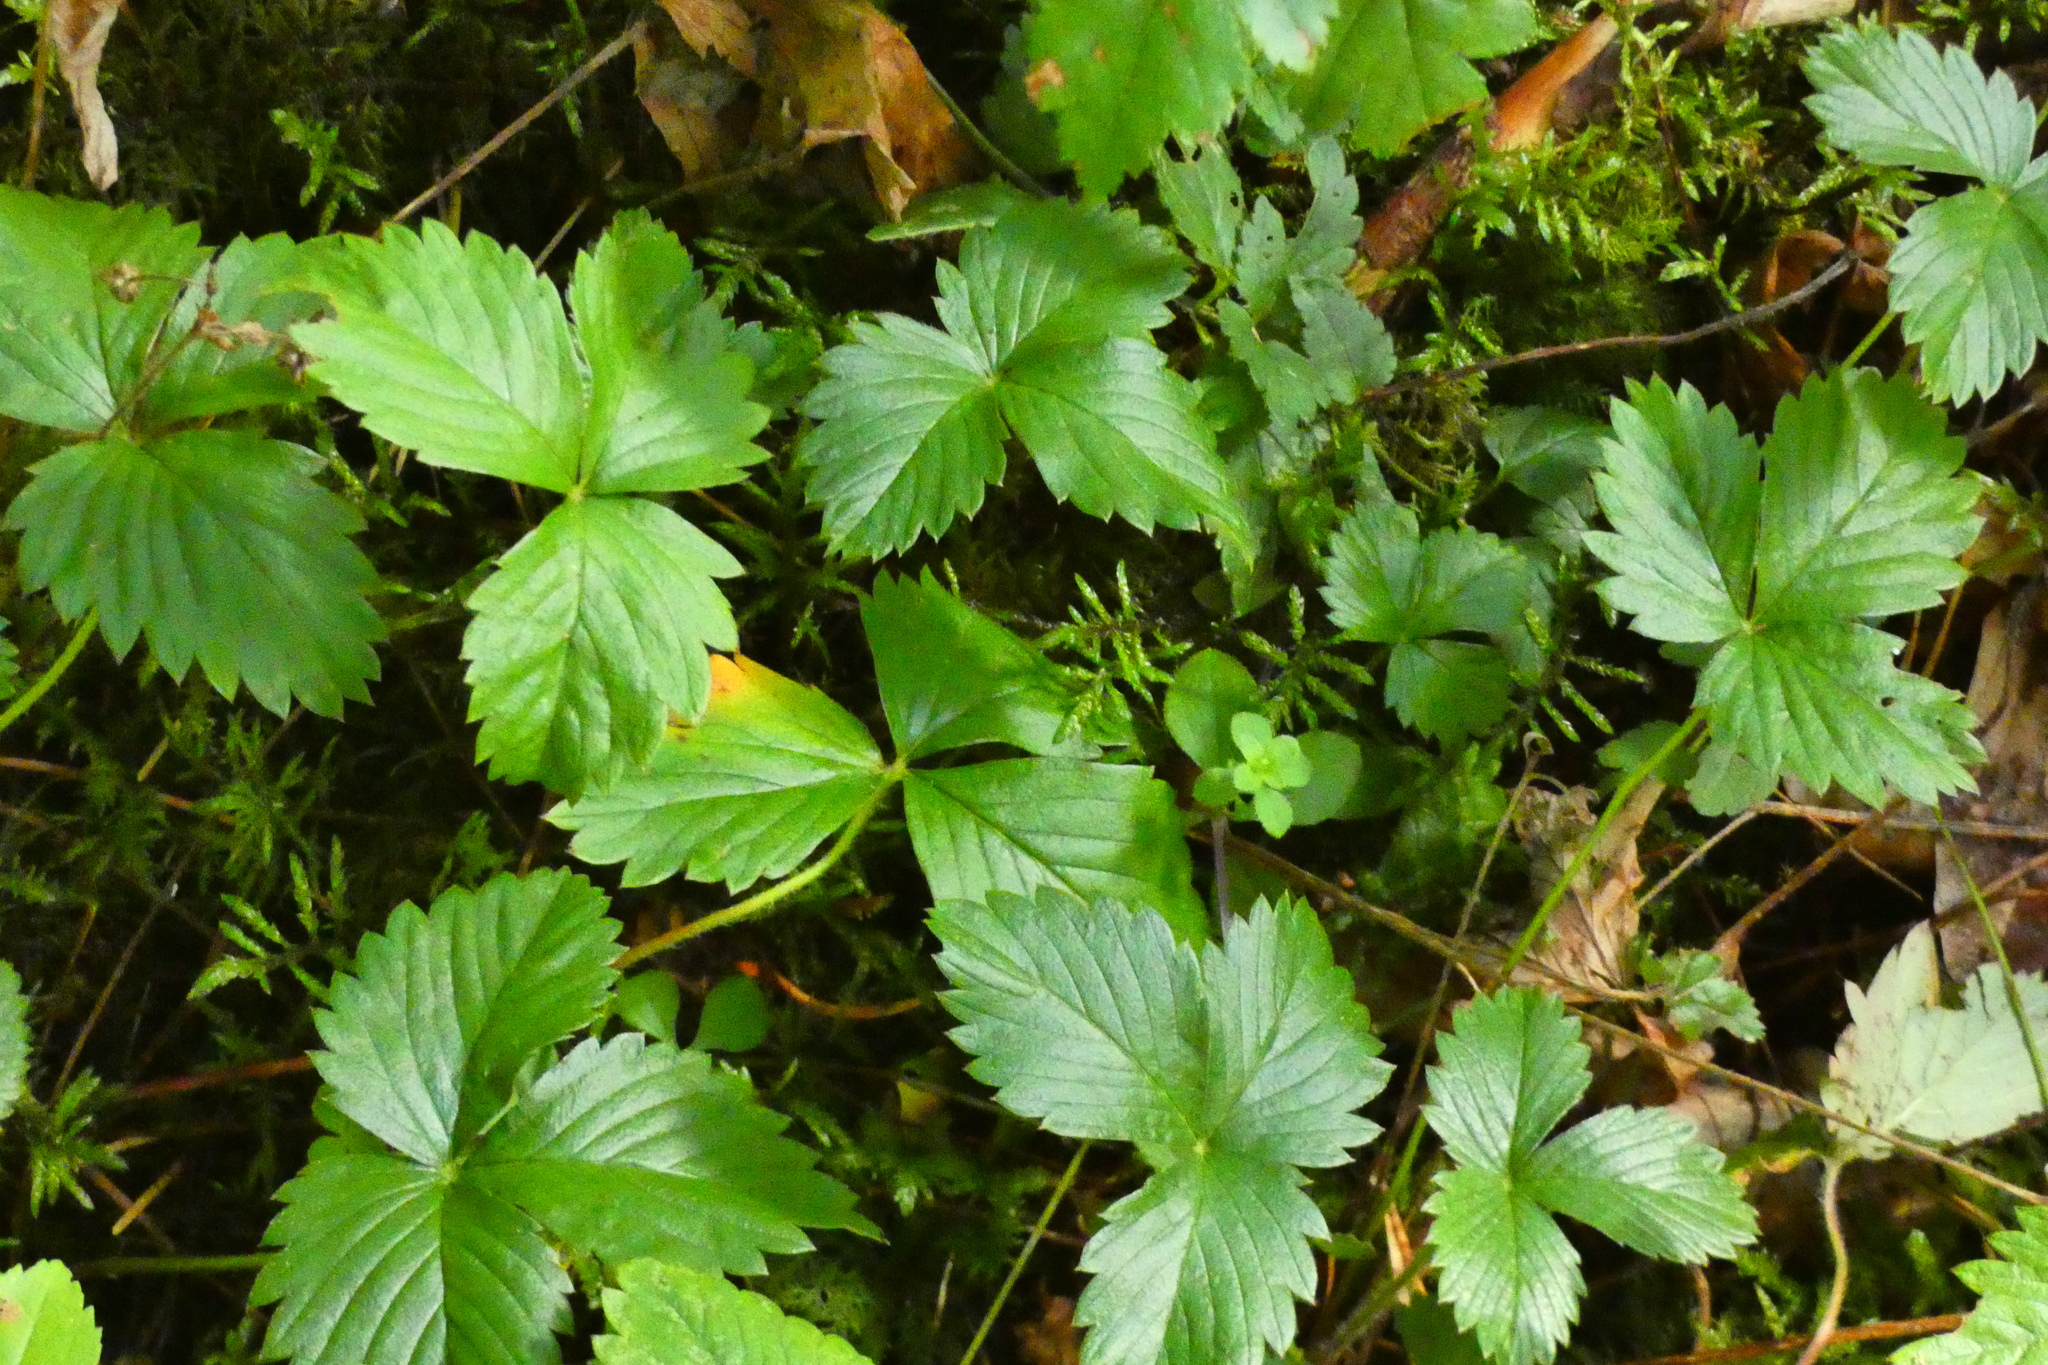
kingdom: Plantae
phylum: Tracheophyta
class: Magnoliopsida
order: Rosales
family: Rosaceae
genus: Fragaria
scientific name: Fragaria vesca
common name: Wild strawberry
